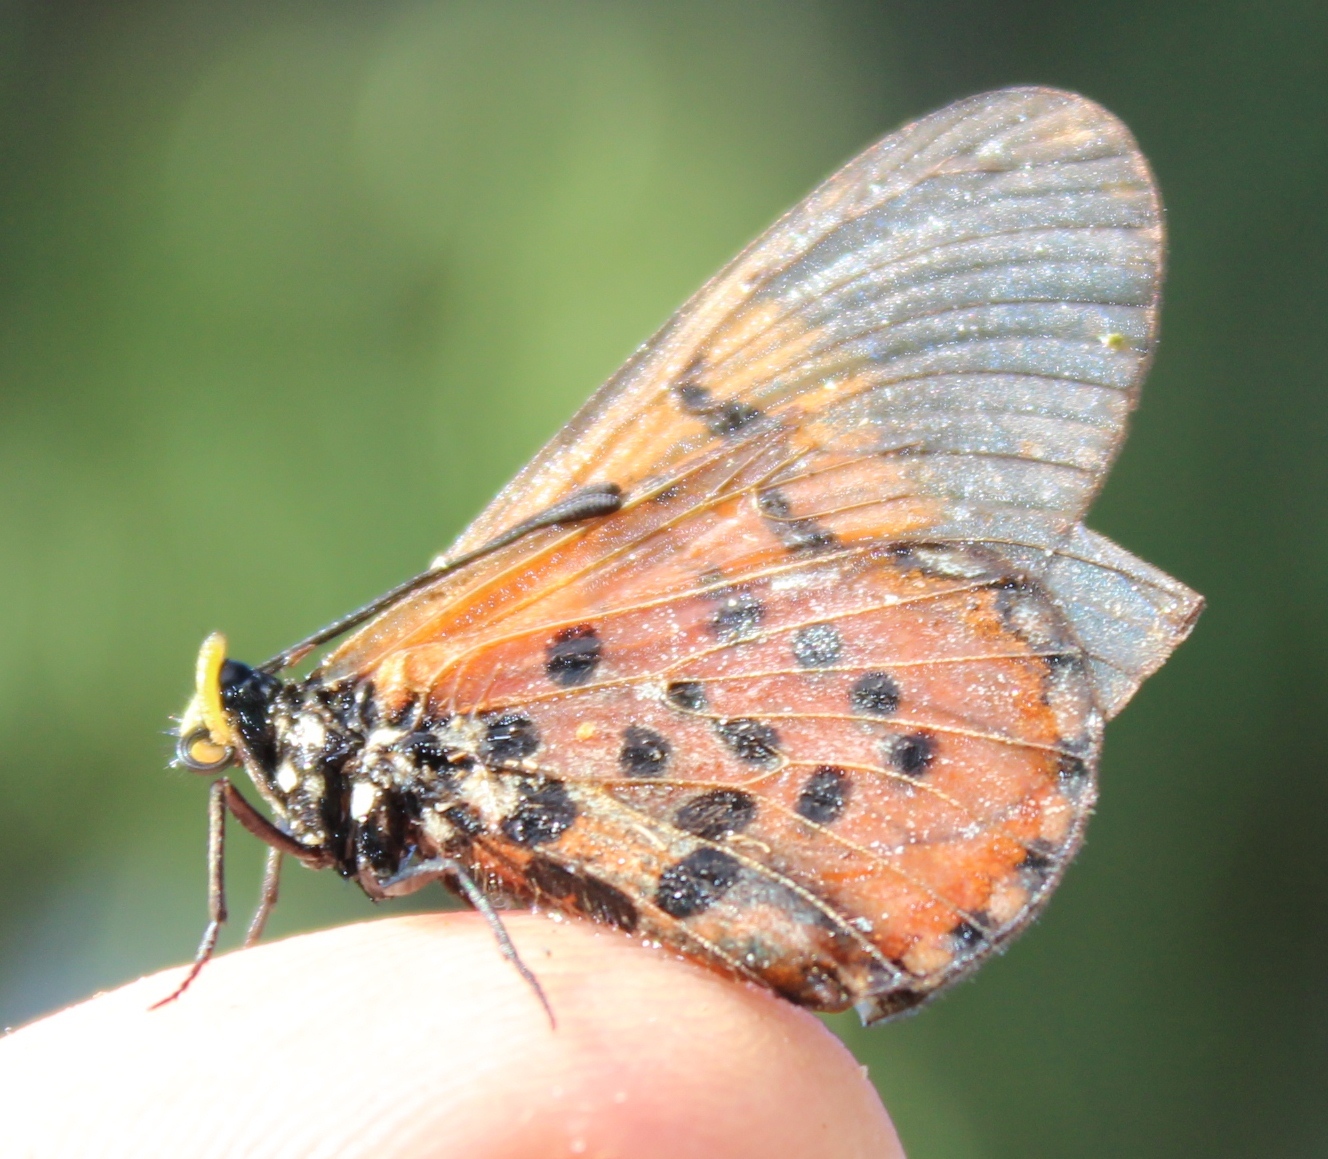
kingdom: Animalia
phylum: Arthropoda
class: Insecta
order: Lepidoptera
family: Nymphalidae
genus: Acraea
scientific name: Acraea horta
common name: Garden acraea
